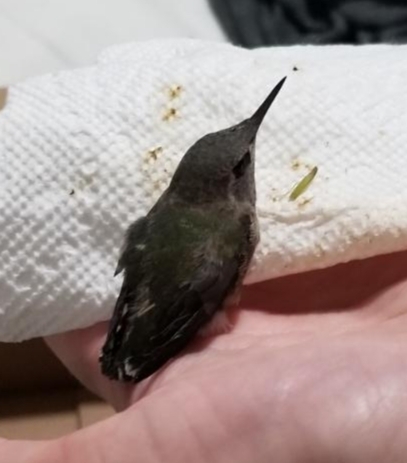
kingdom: Animalia
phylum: Chordata
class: Aves
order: Apodiformes
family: Trochilidae
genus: Calypte
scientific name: Calypte anna
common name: Anna's hummingbird
